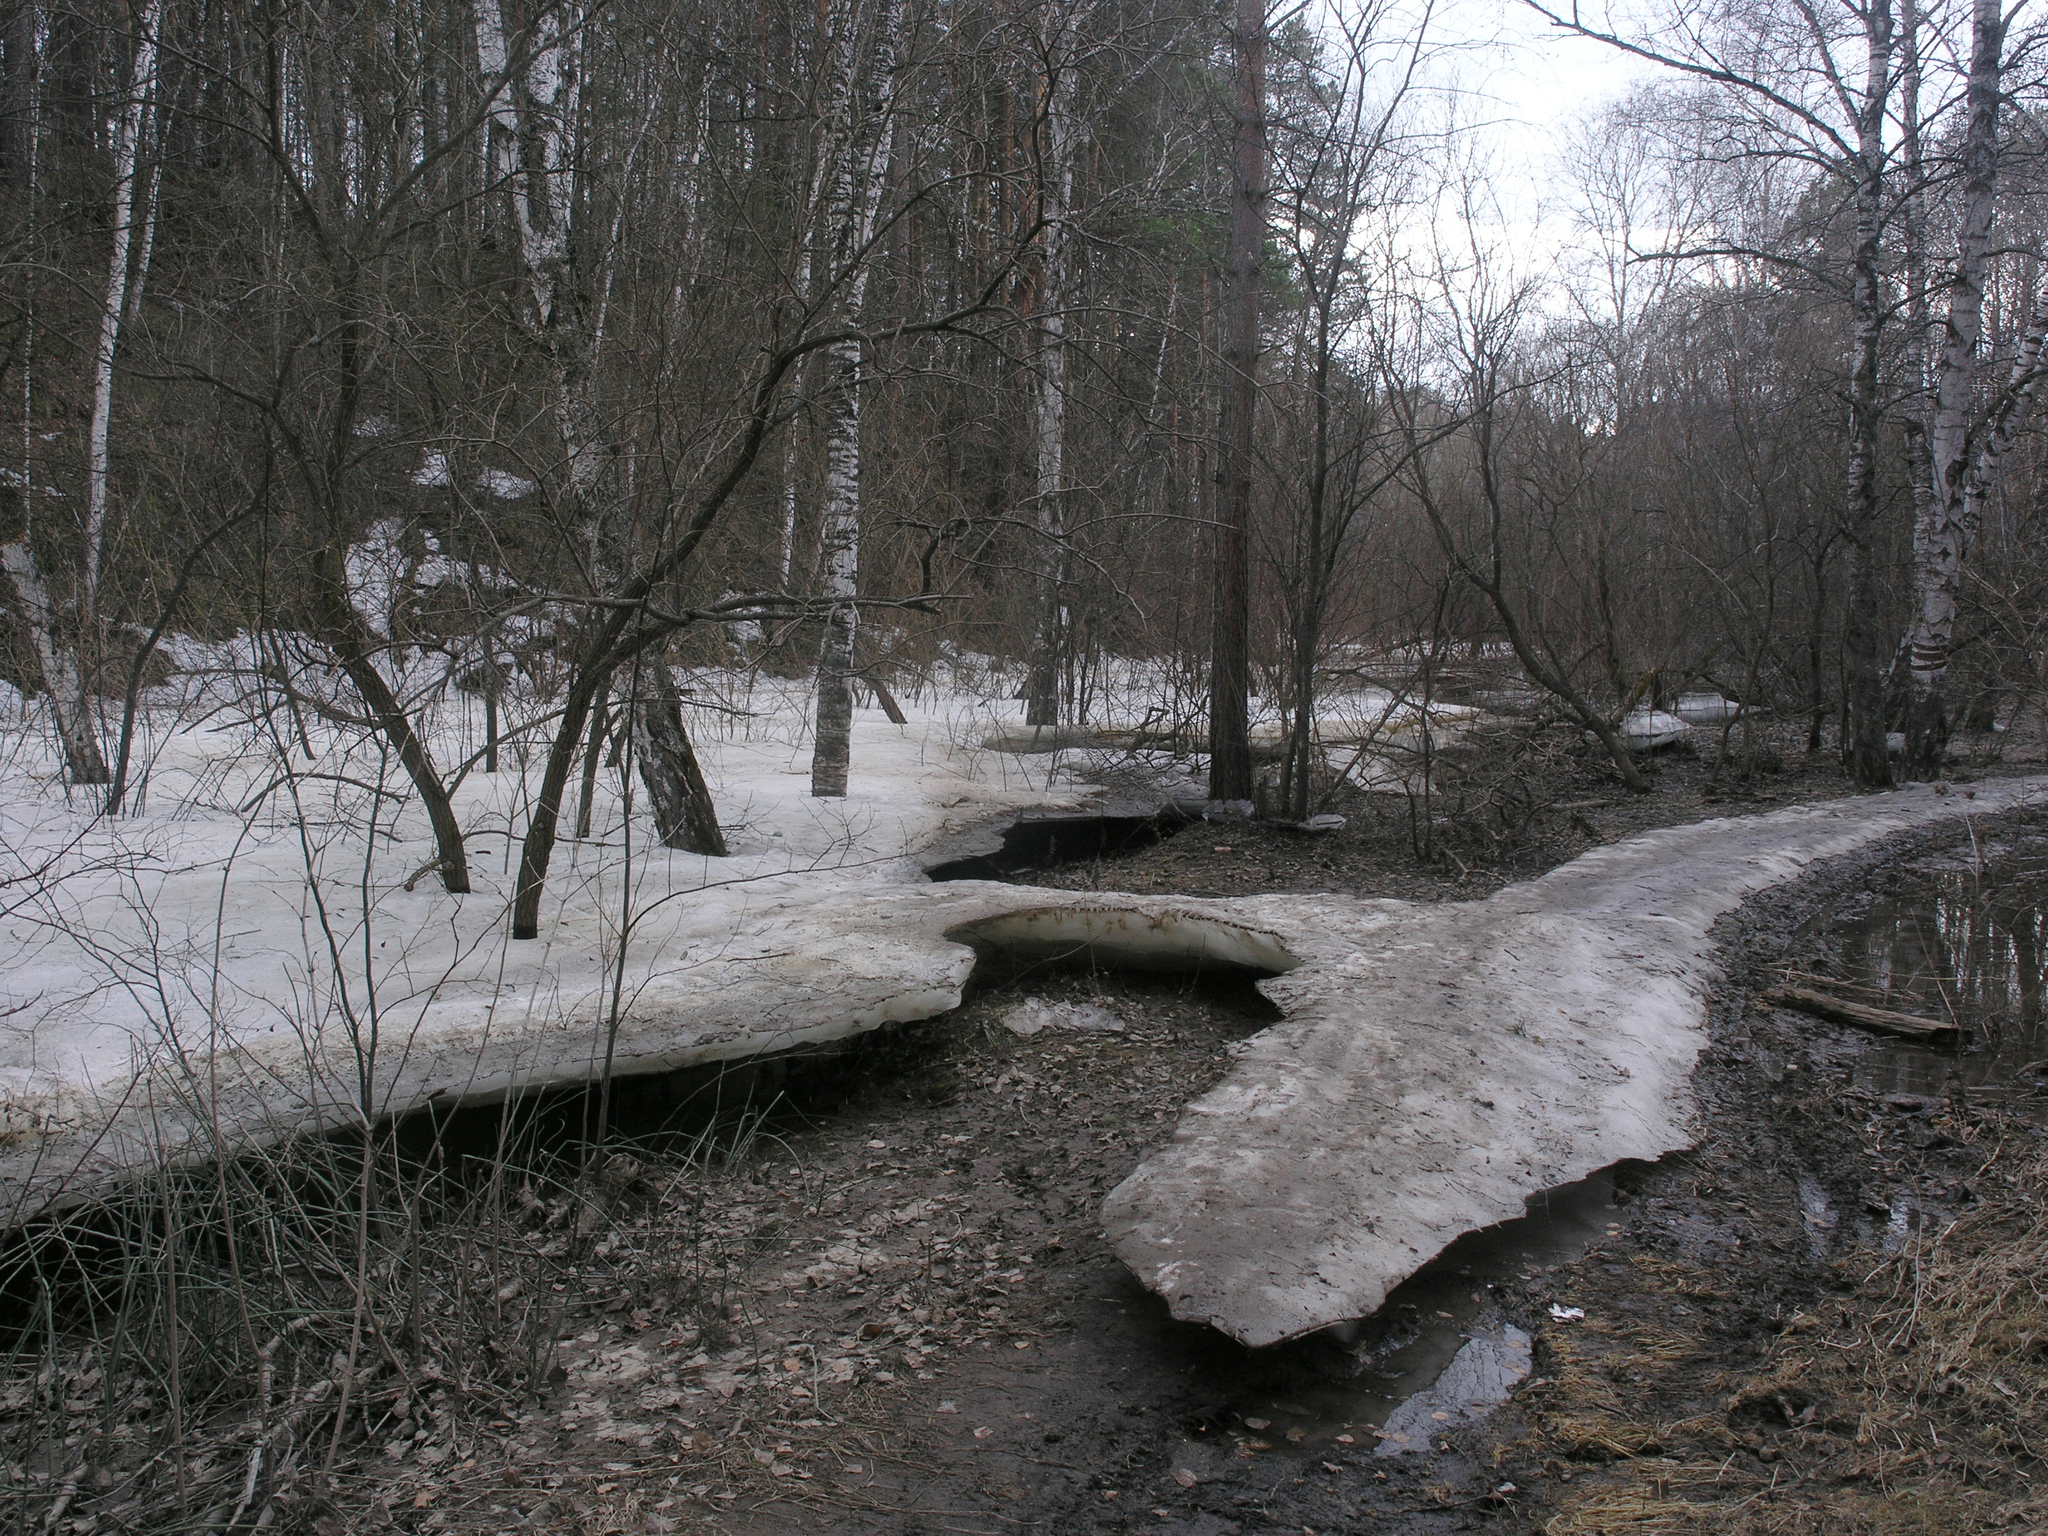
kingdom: Plantae
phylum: Tracheophyta
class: Magnoliopsida
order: Rosales
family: Rosaceae
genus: Prunus
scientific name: Prunus padus
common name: Bird cherry
